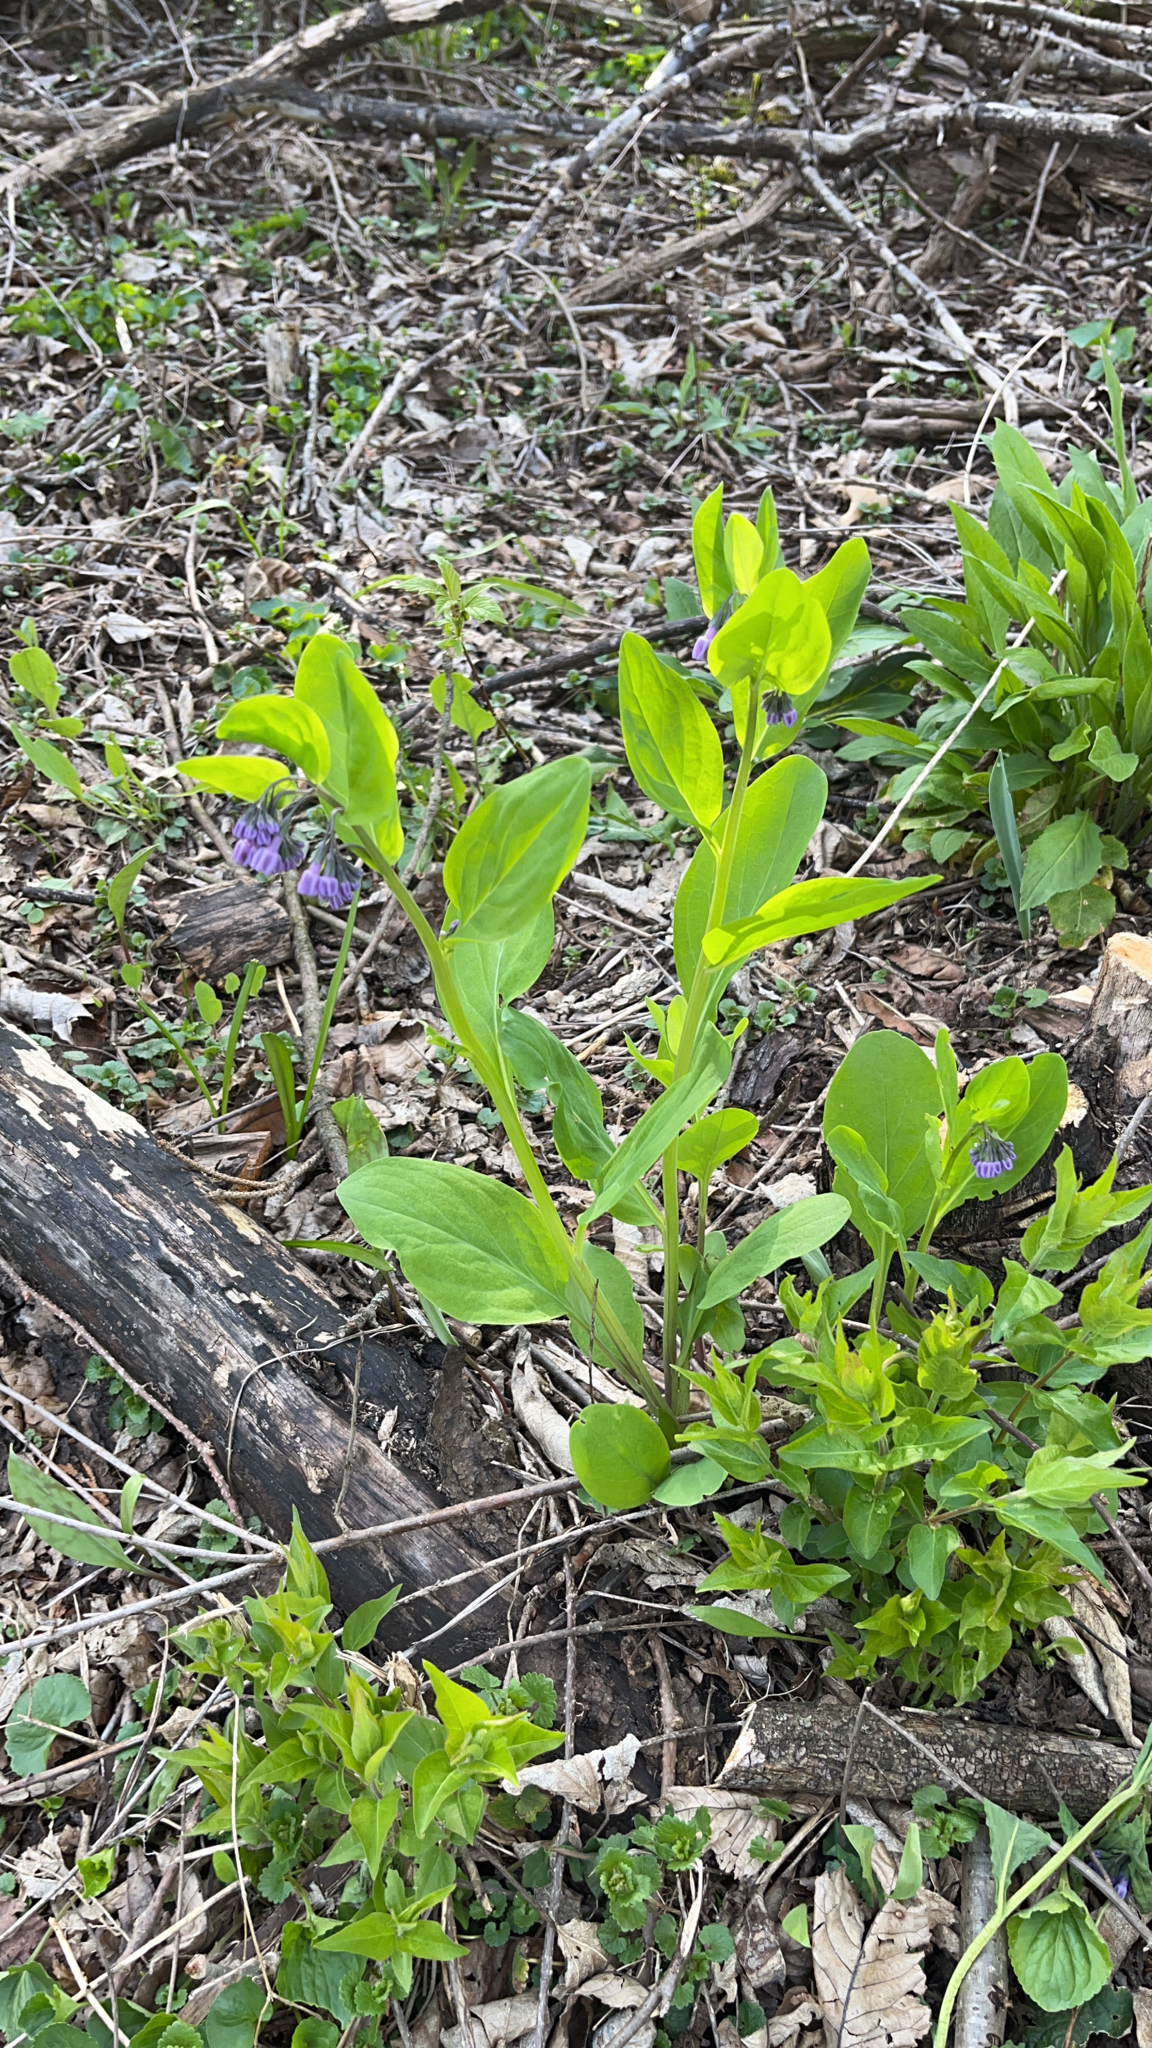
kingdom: Plantae
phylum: Tracheophyta
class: Magnoliopsida
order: Boraginales
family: Boraginaceae
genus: Mertensia
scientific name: Mertensia virginica
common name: Virginia bluebells
